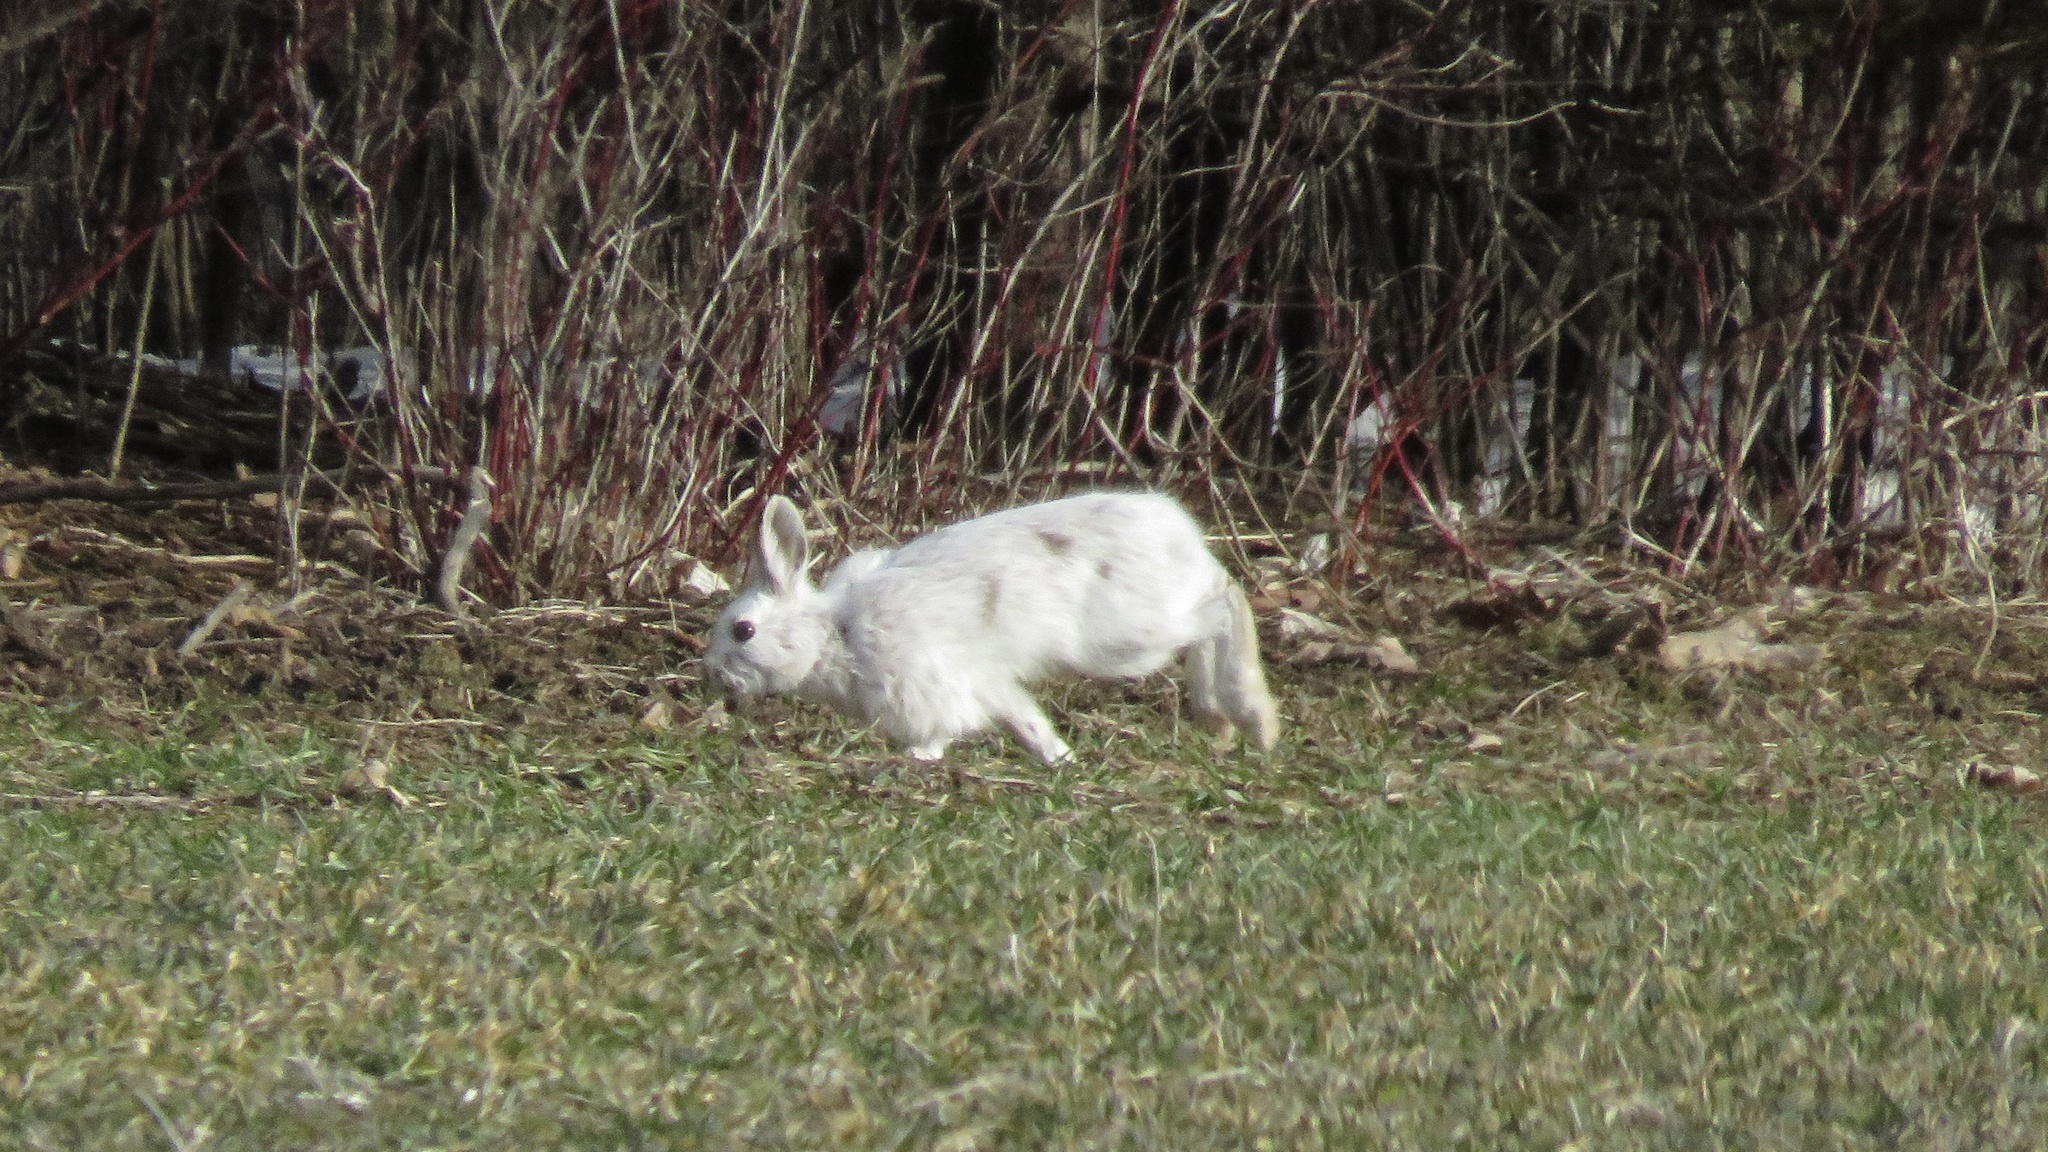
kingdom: Animalia
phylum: Chordata
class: Mammalia
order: Lagomorpha
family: Leporidae
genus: Lepus
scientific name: Lepus americanus
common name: Snowshoe hare
